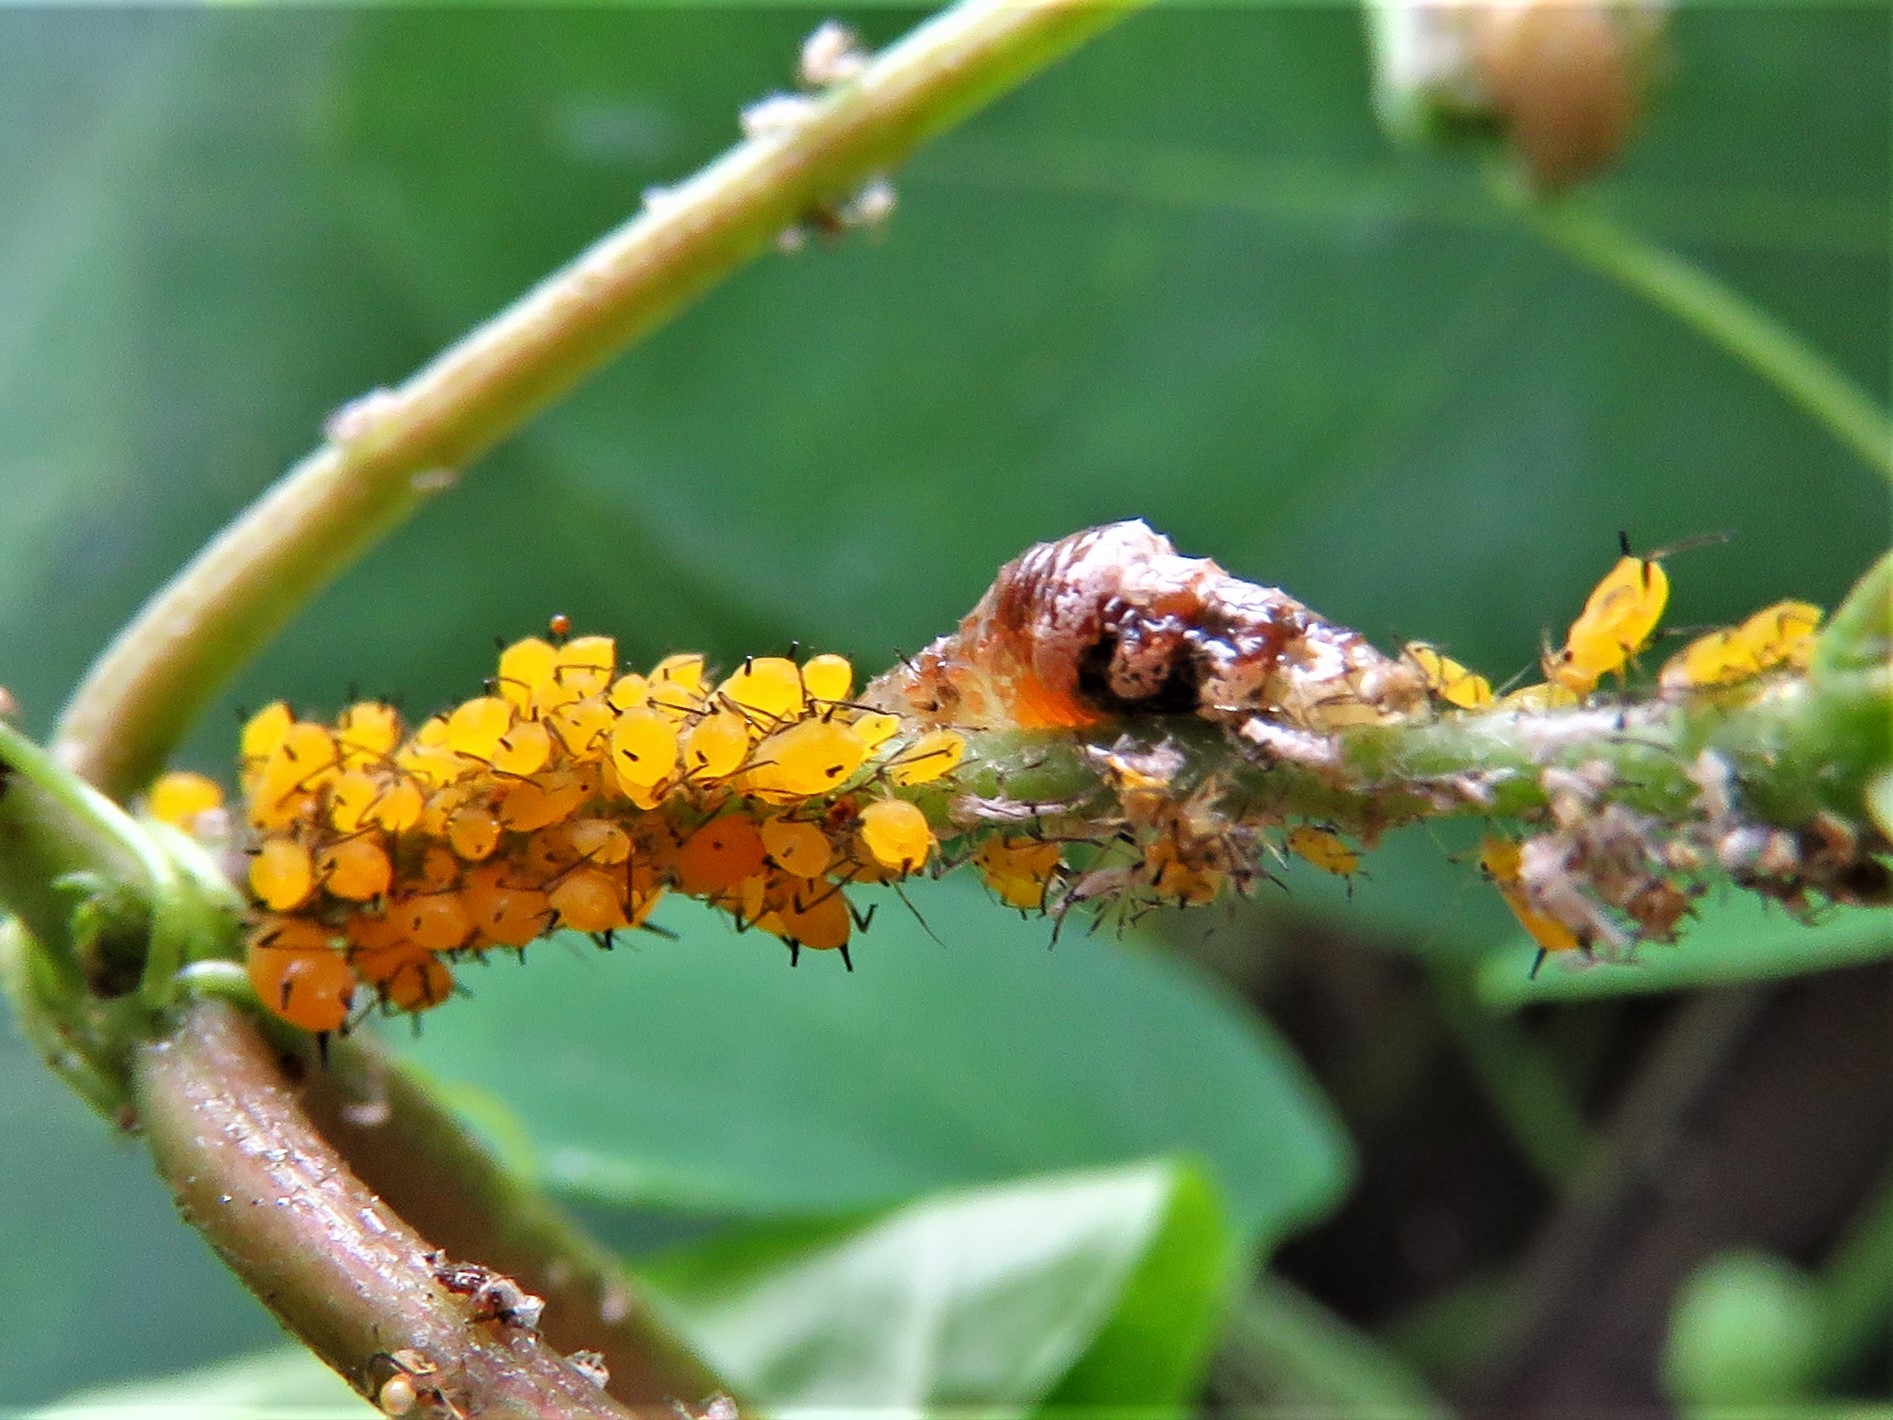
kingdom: Animalia
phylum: Arthropoda
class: Insecta
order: Hemiptera
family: Aphididae
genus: Aphis
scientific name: Aphis nerii
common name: Oleander aphid
